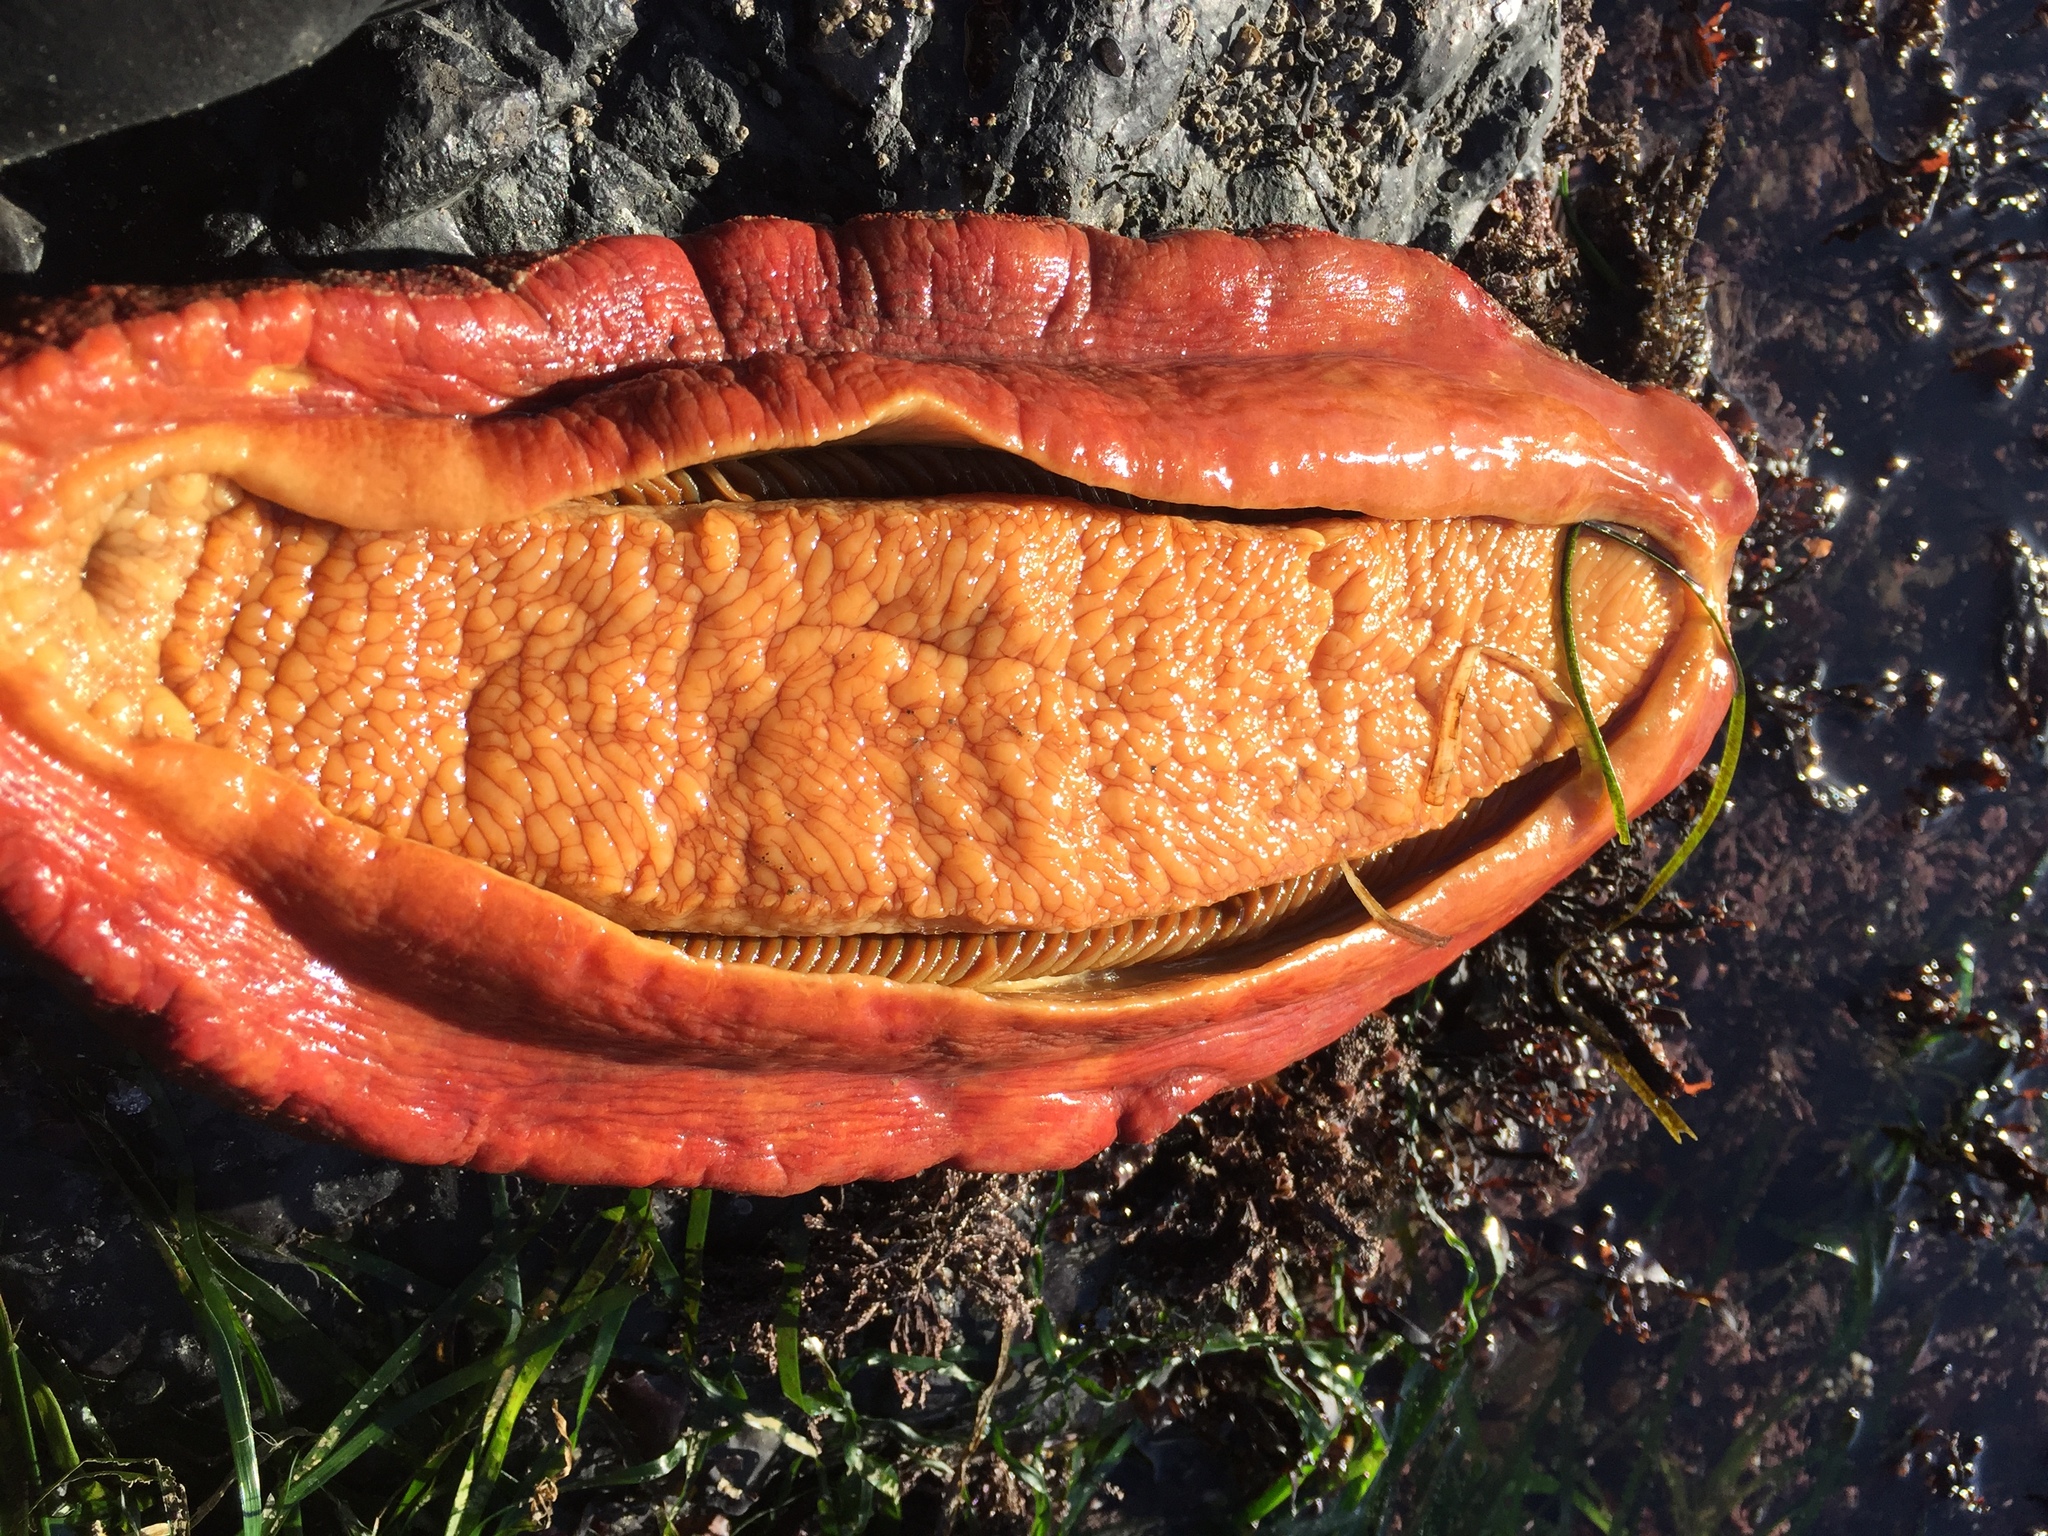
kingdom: Animalia
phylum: Mollusca
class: Polyplacophora
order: Chitonida
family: Acanthochitonidae
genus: Cryptochiton
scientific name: Cryptochiton stelleri
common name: Giant pacific chiton
